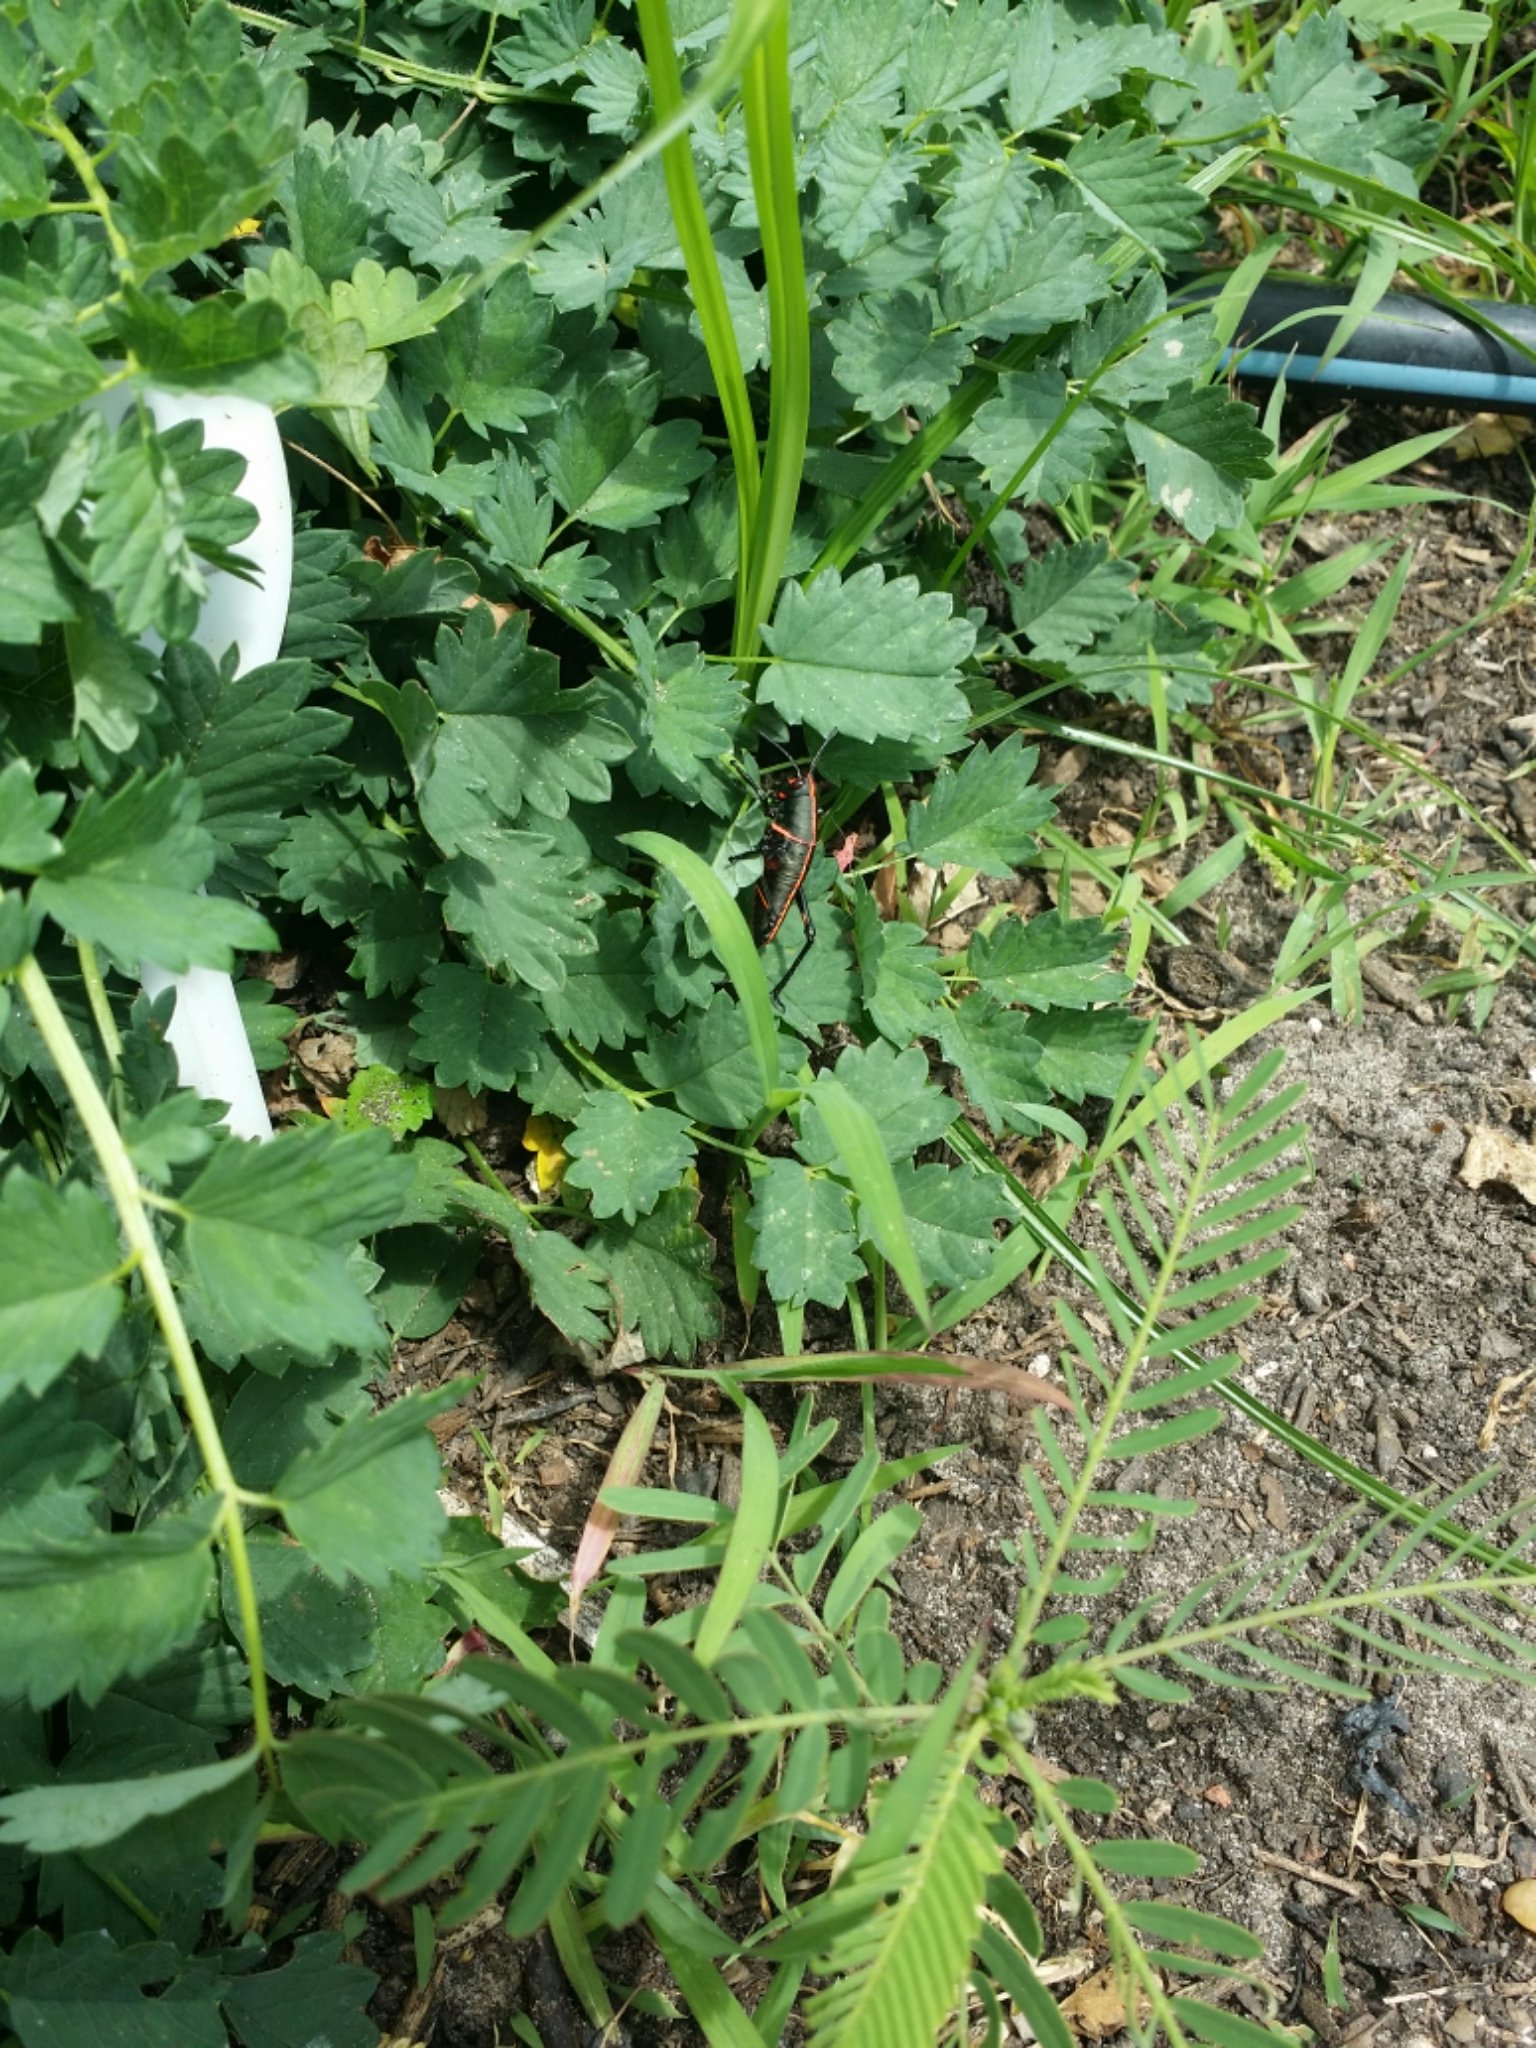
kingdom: Animalia
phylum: Arthropoda
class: Insecta
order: Orthoptera
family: Romaleidae
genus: Romalea
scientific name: Romalea microptera
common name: Eastern lubber grasshopper
